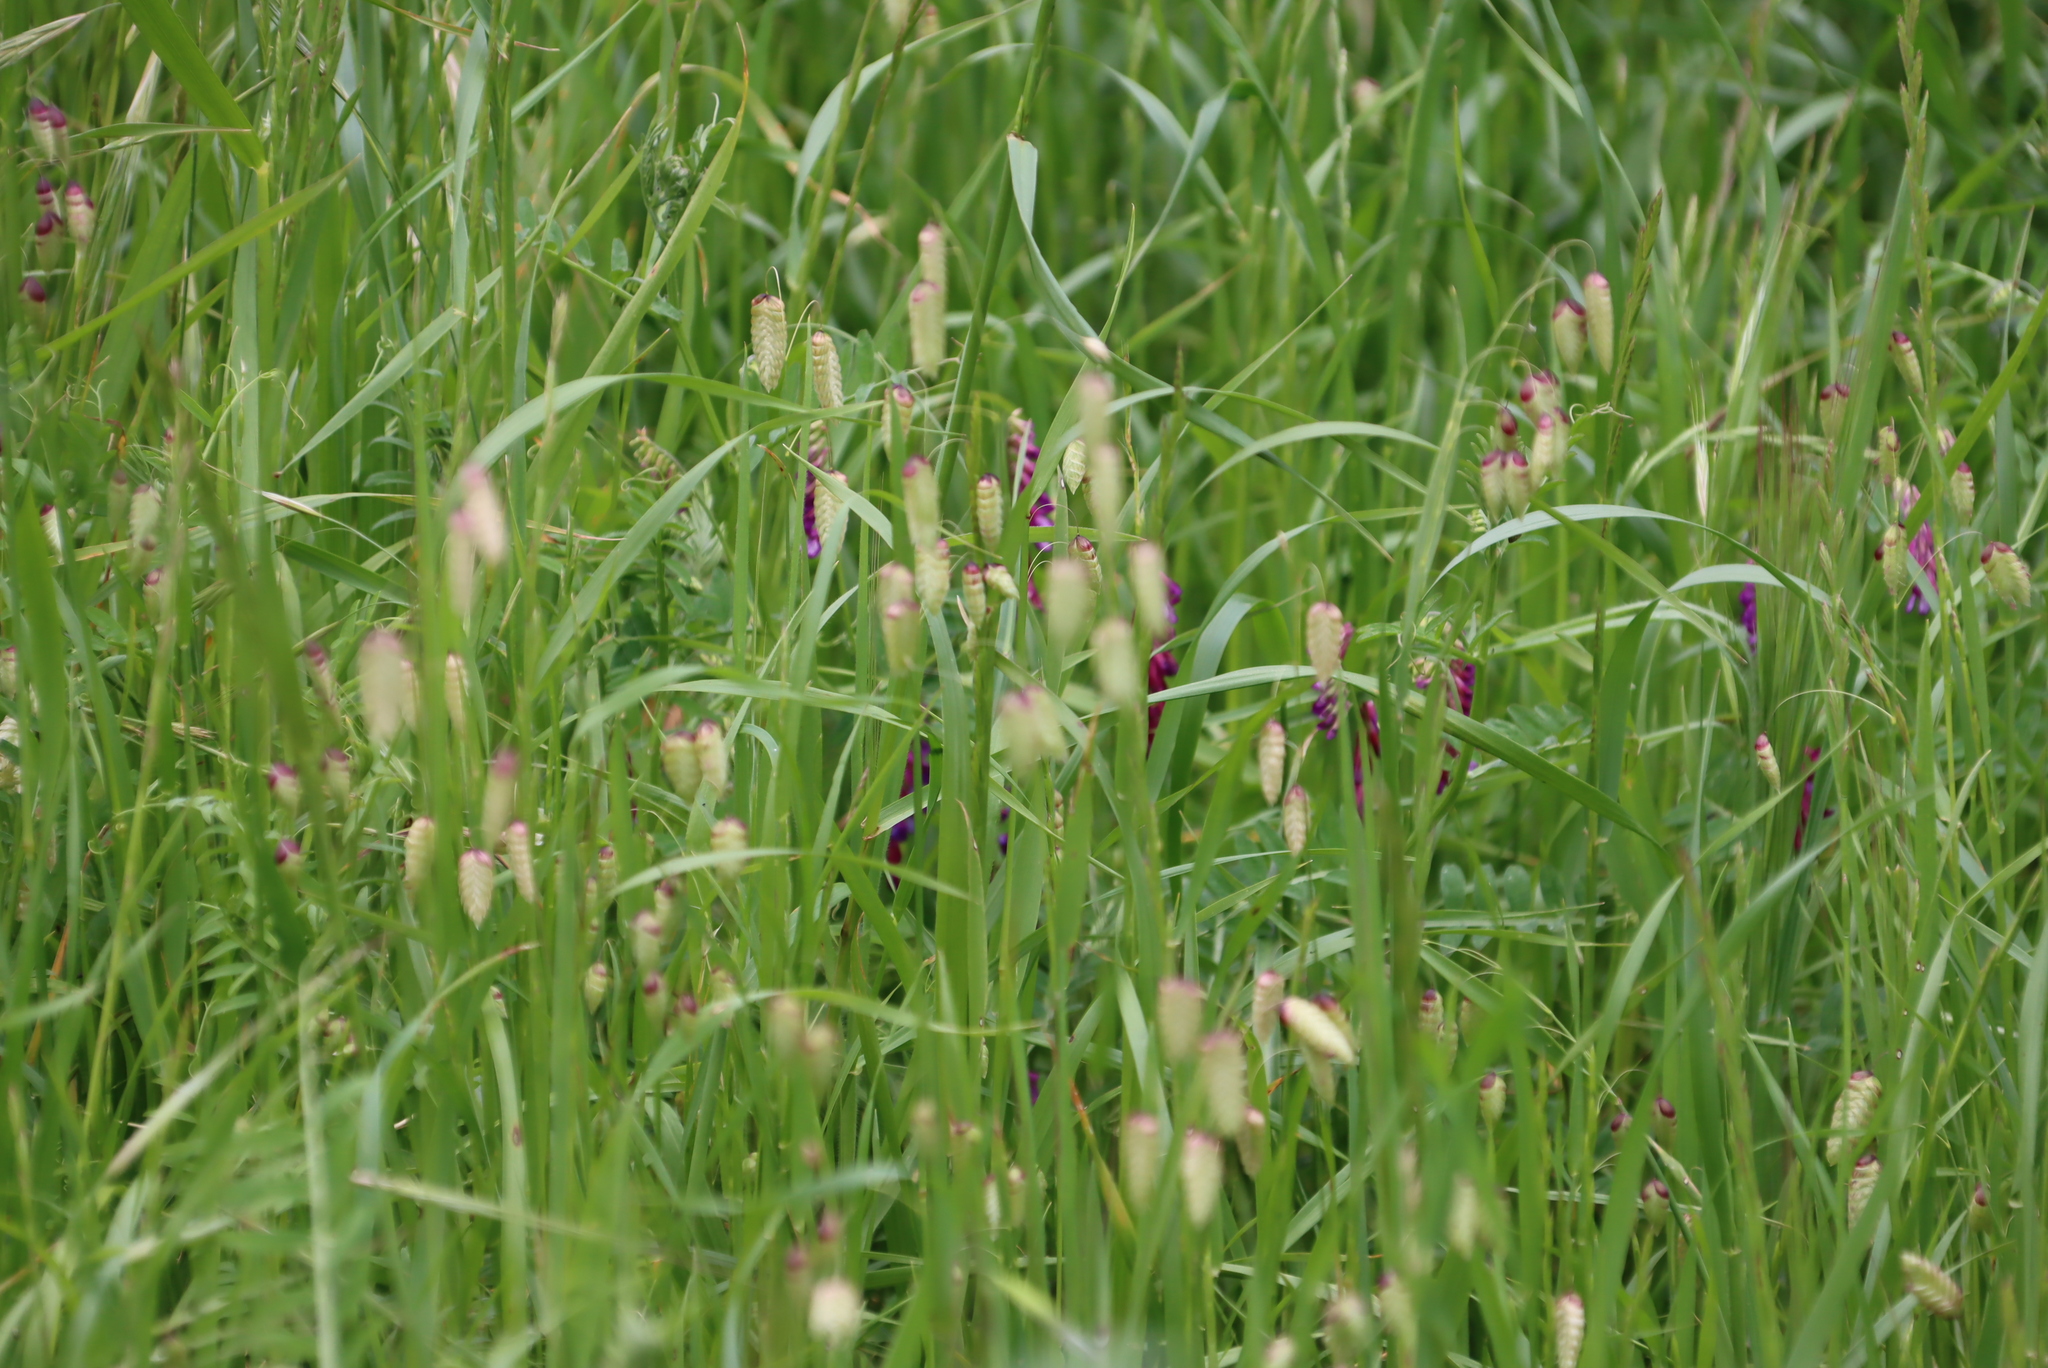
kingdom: Plantae
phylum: Tracheophyta
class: Liliopsida
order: Poales
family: Poaceae
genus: Briza
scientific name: Briza maxima
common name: Big quakinggrass
